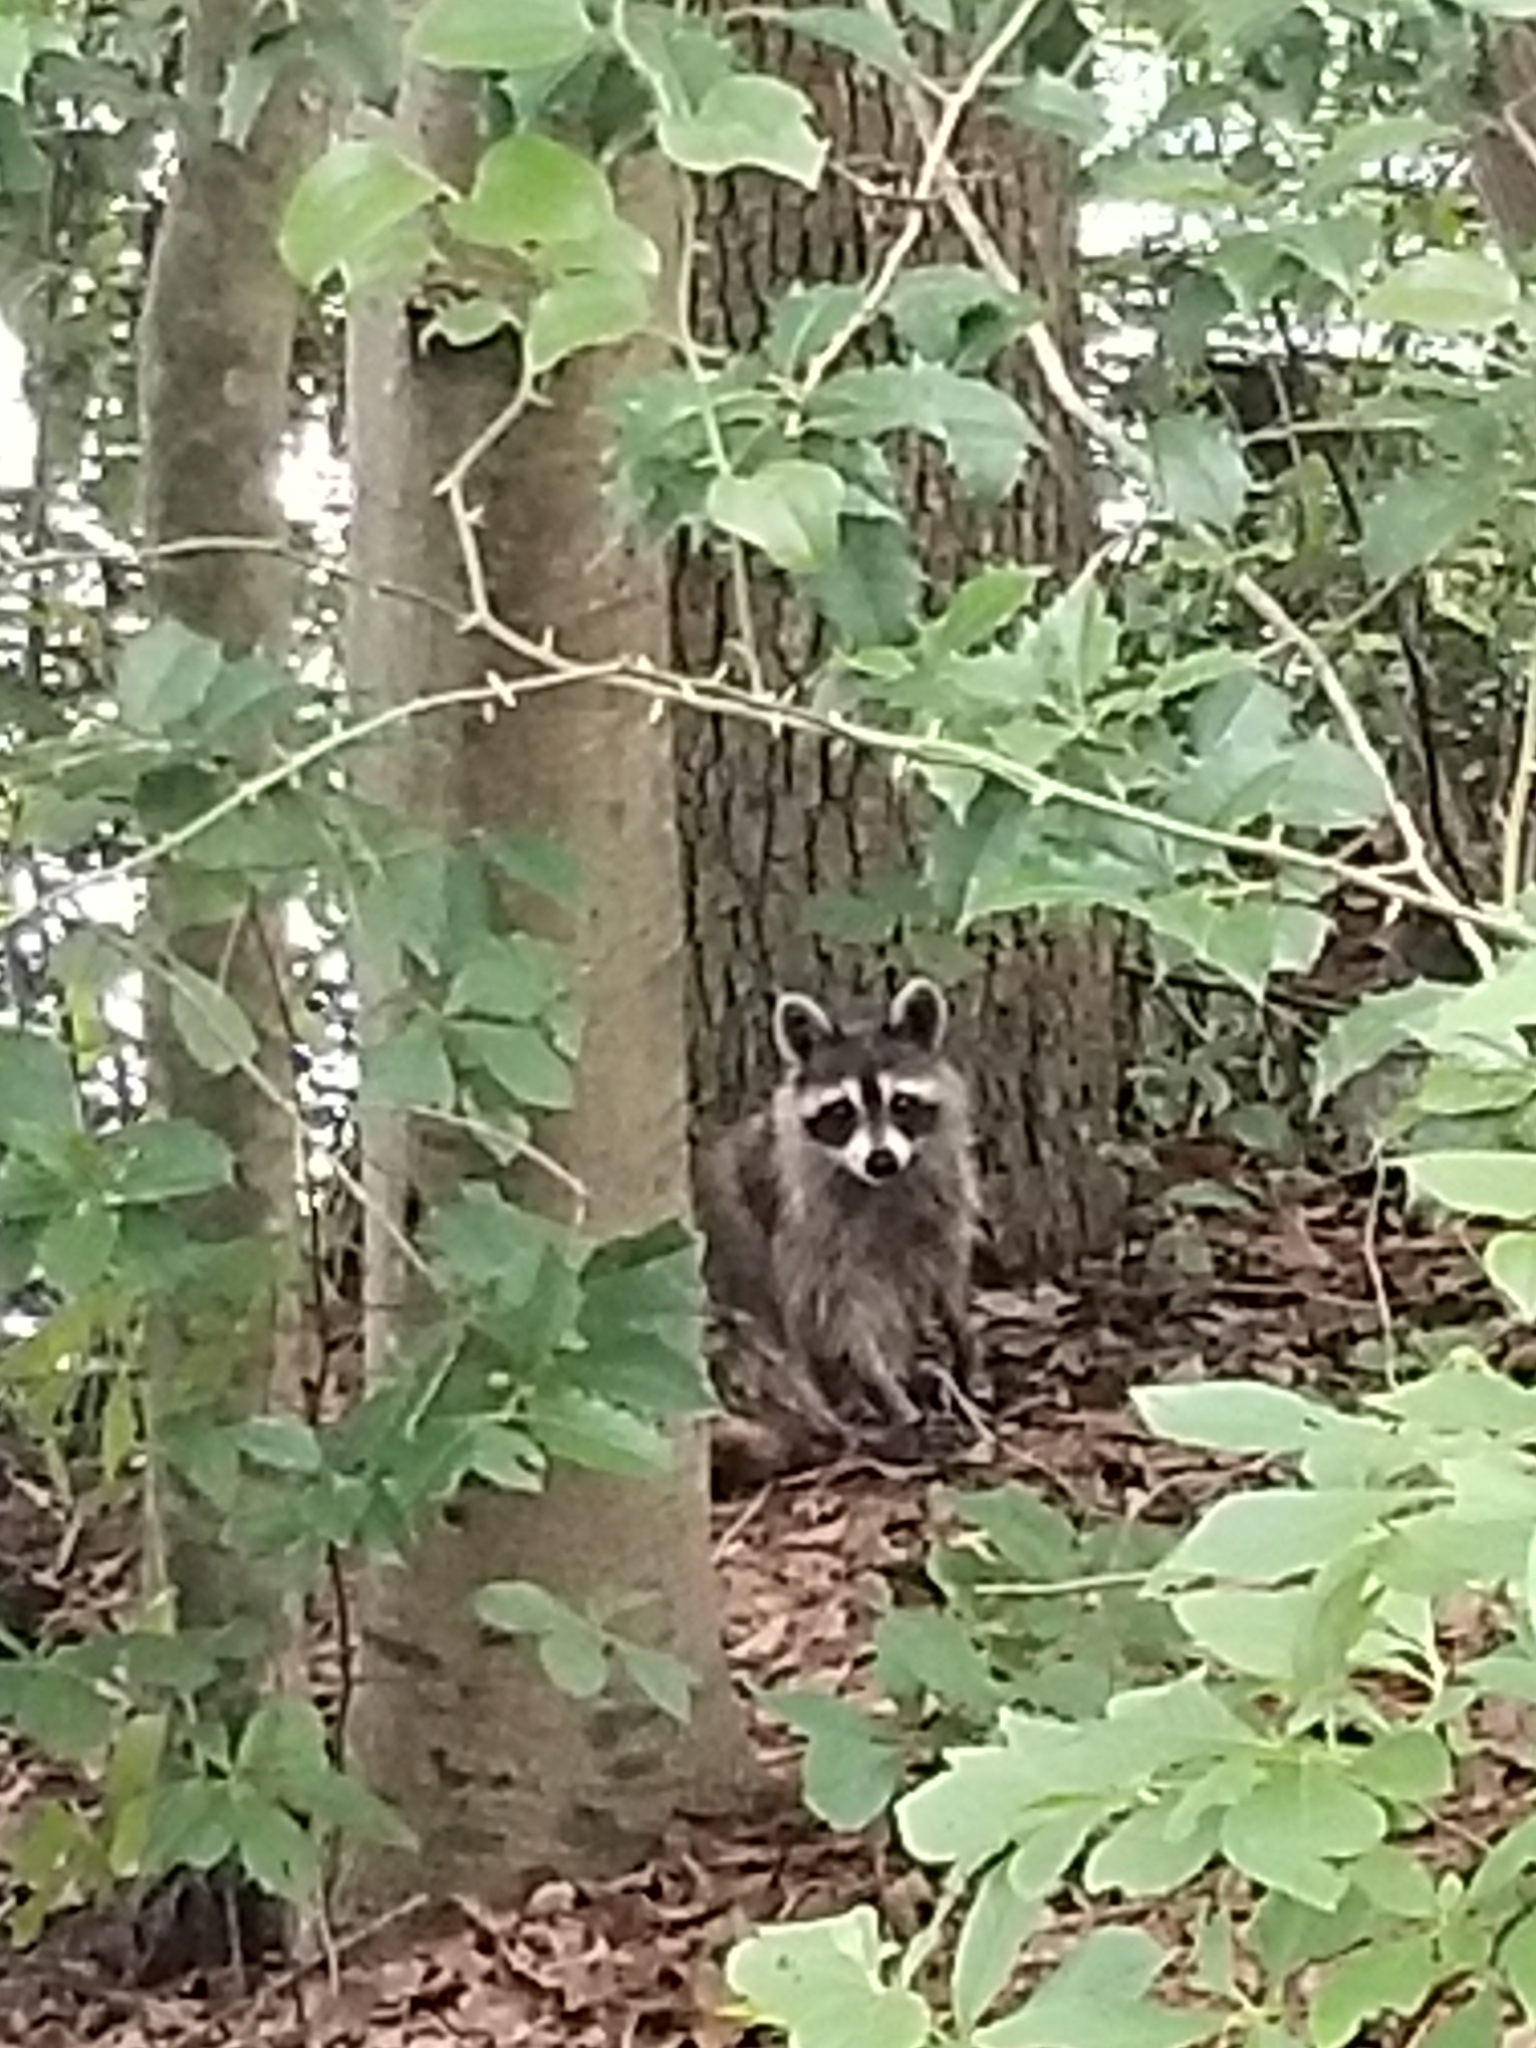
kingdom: Animalia
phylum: Chordata
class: Mammalia
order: Carnivora
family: Procyonidae
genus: Procyon
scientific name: Procyon lotor
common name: Raccoon
